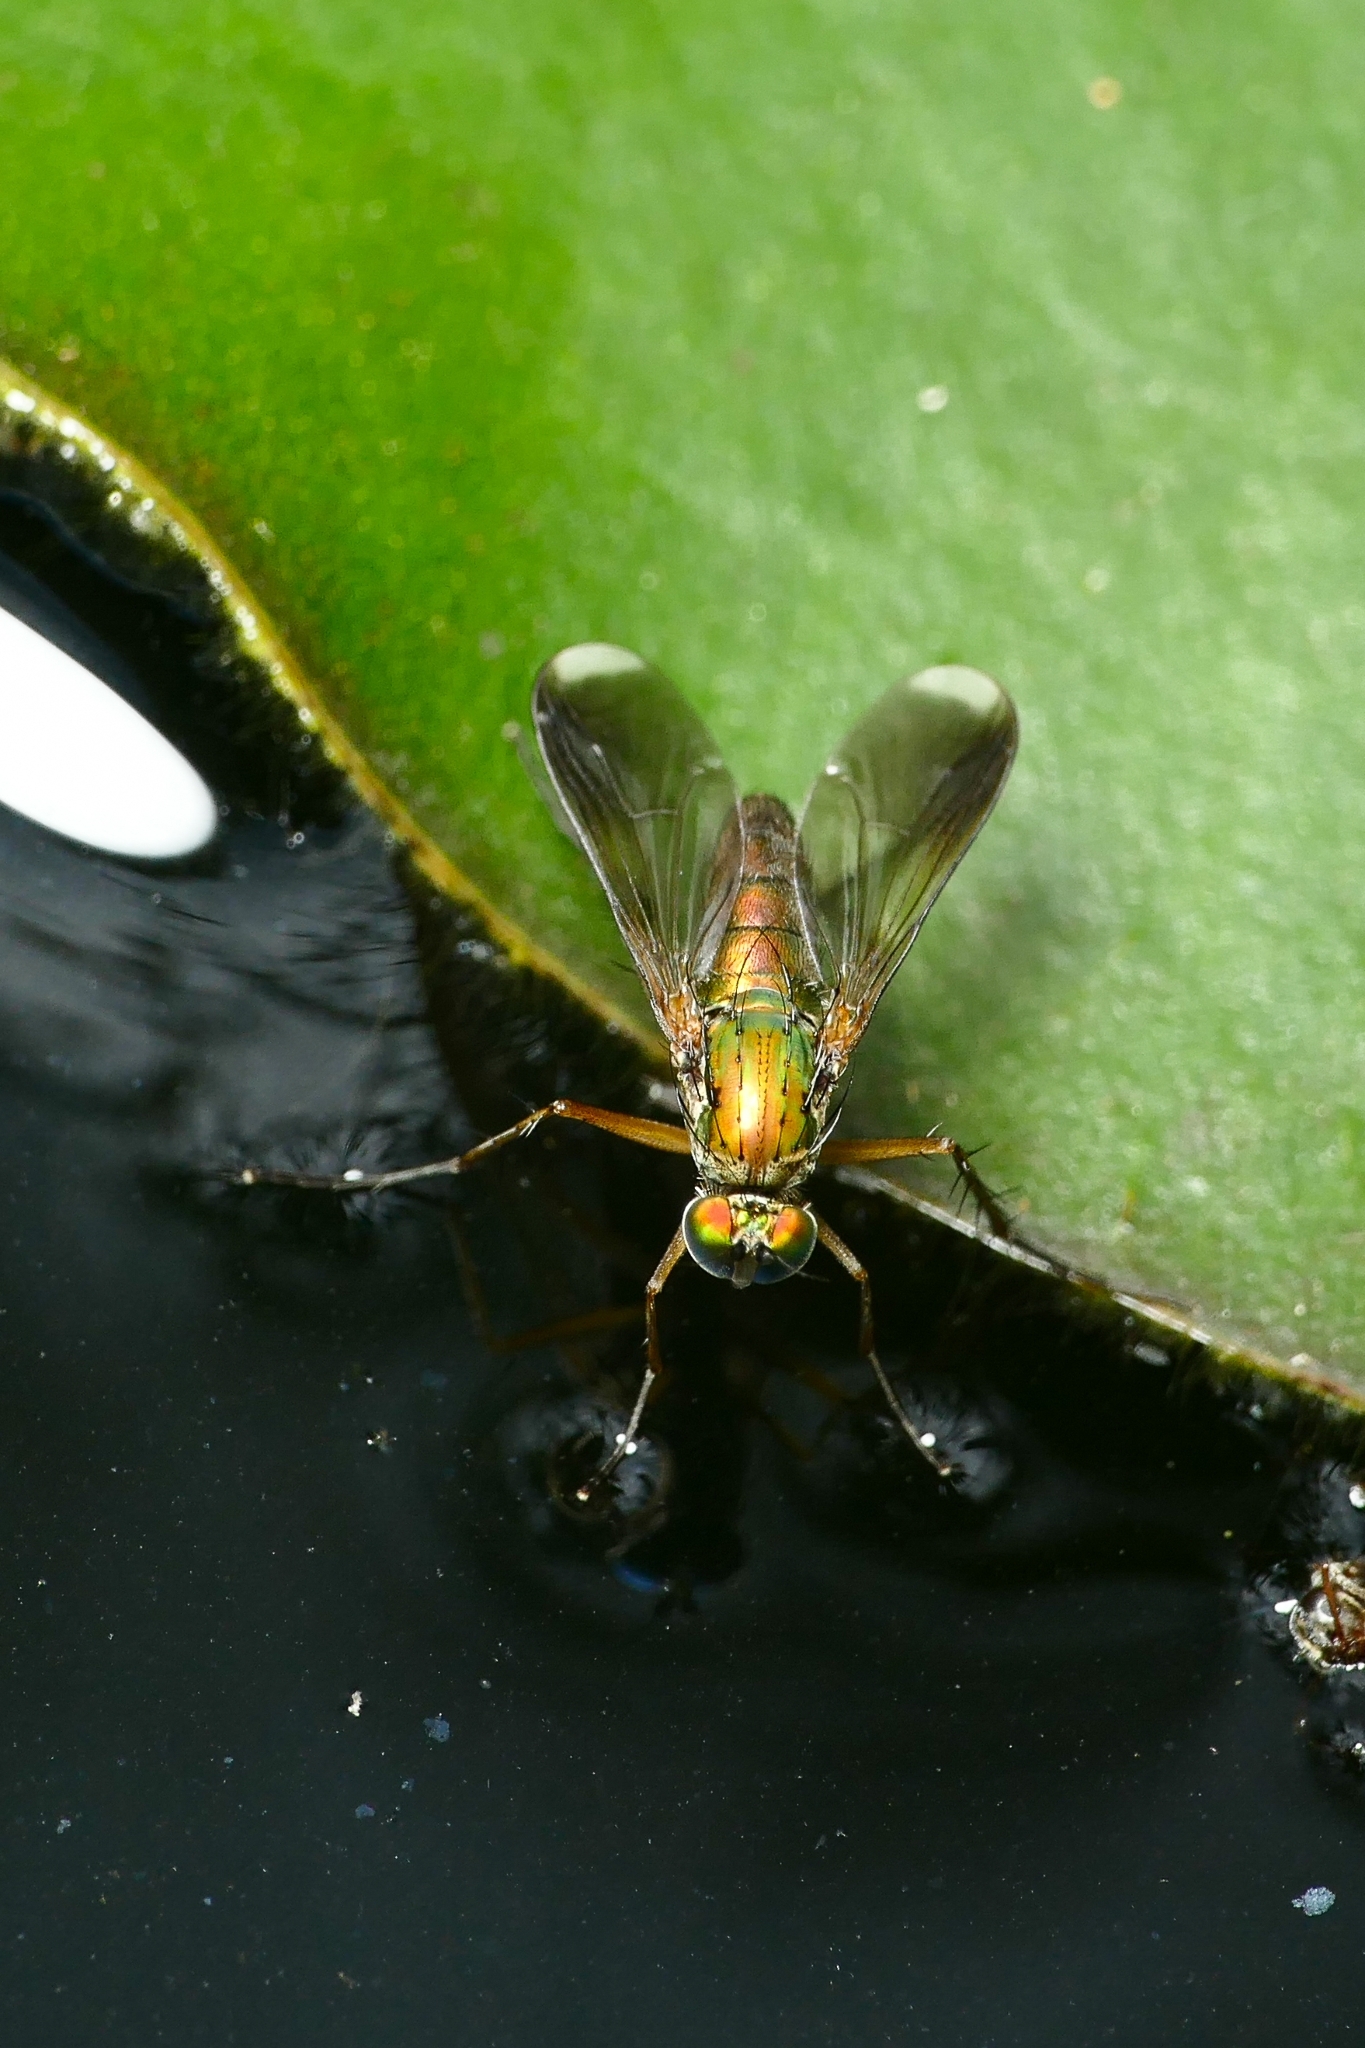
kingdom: Animalia
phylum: Arthropoda
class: Insecta
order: Diptera
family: Dolichopodidae
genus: Poecilobothrus
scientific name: Poecilobothrus nobilitatus
